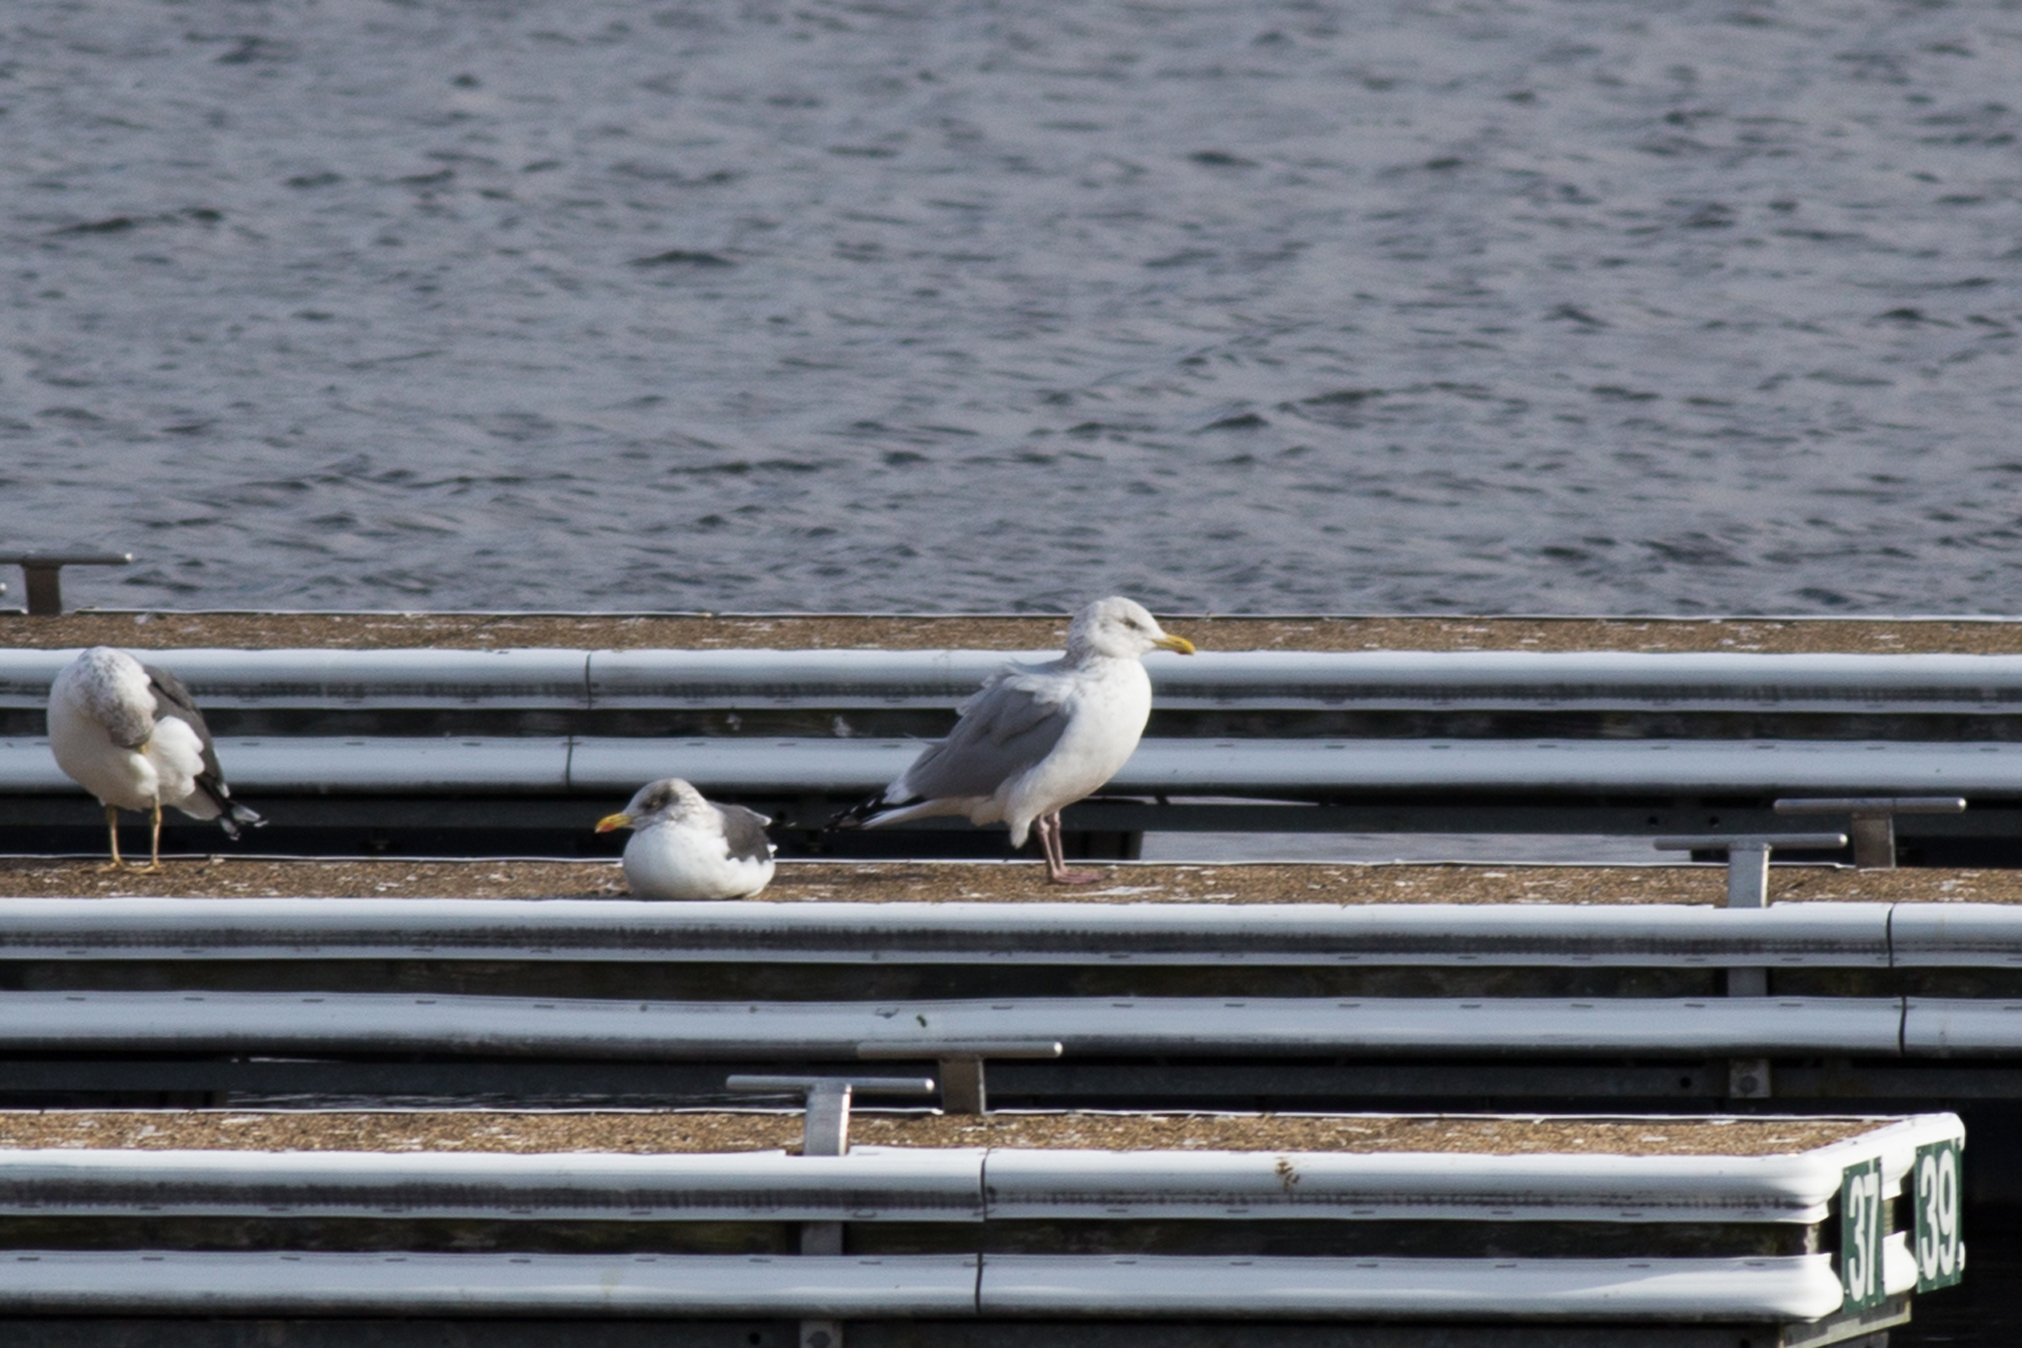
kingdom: Animalia
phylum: Chordata
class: Aves
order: Charadriiformes
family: Laridae
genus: Larus
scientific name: Larus argentatus
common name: Herring gull
